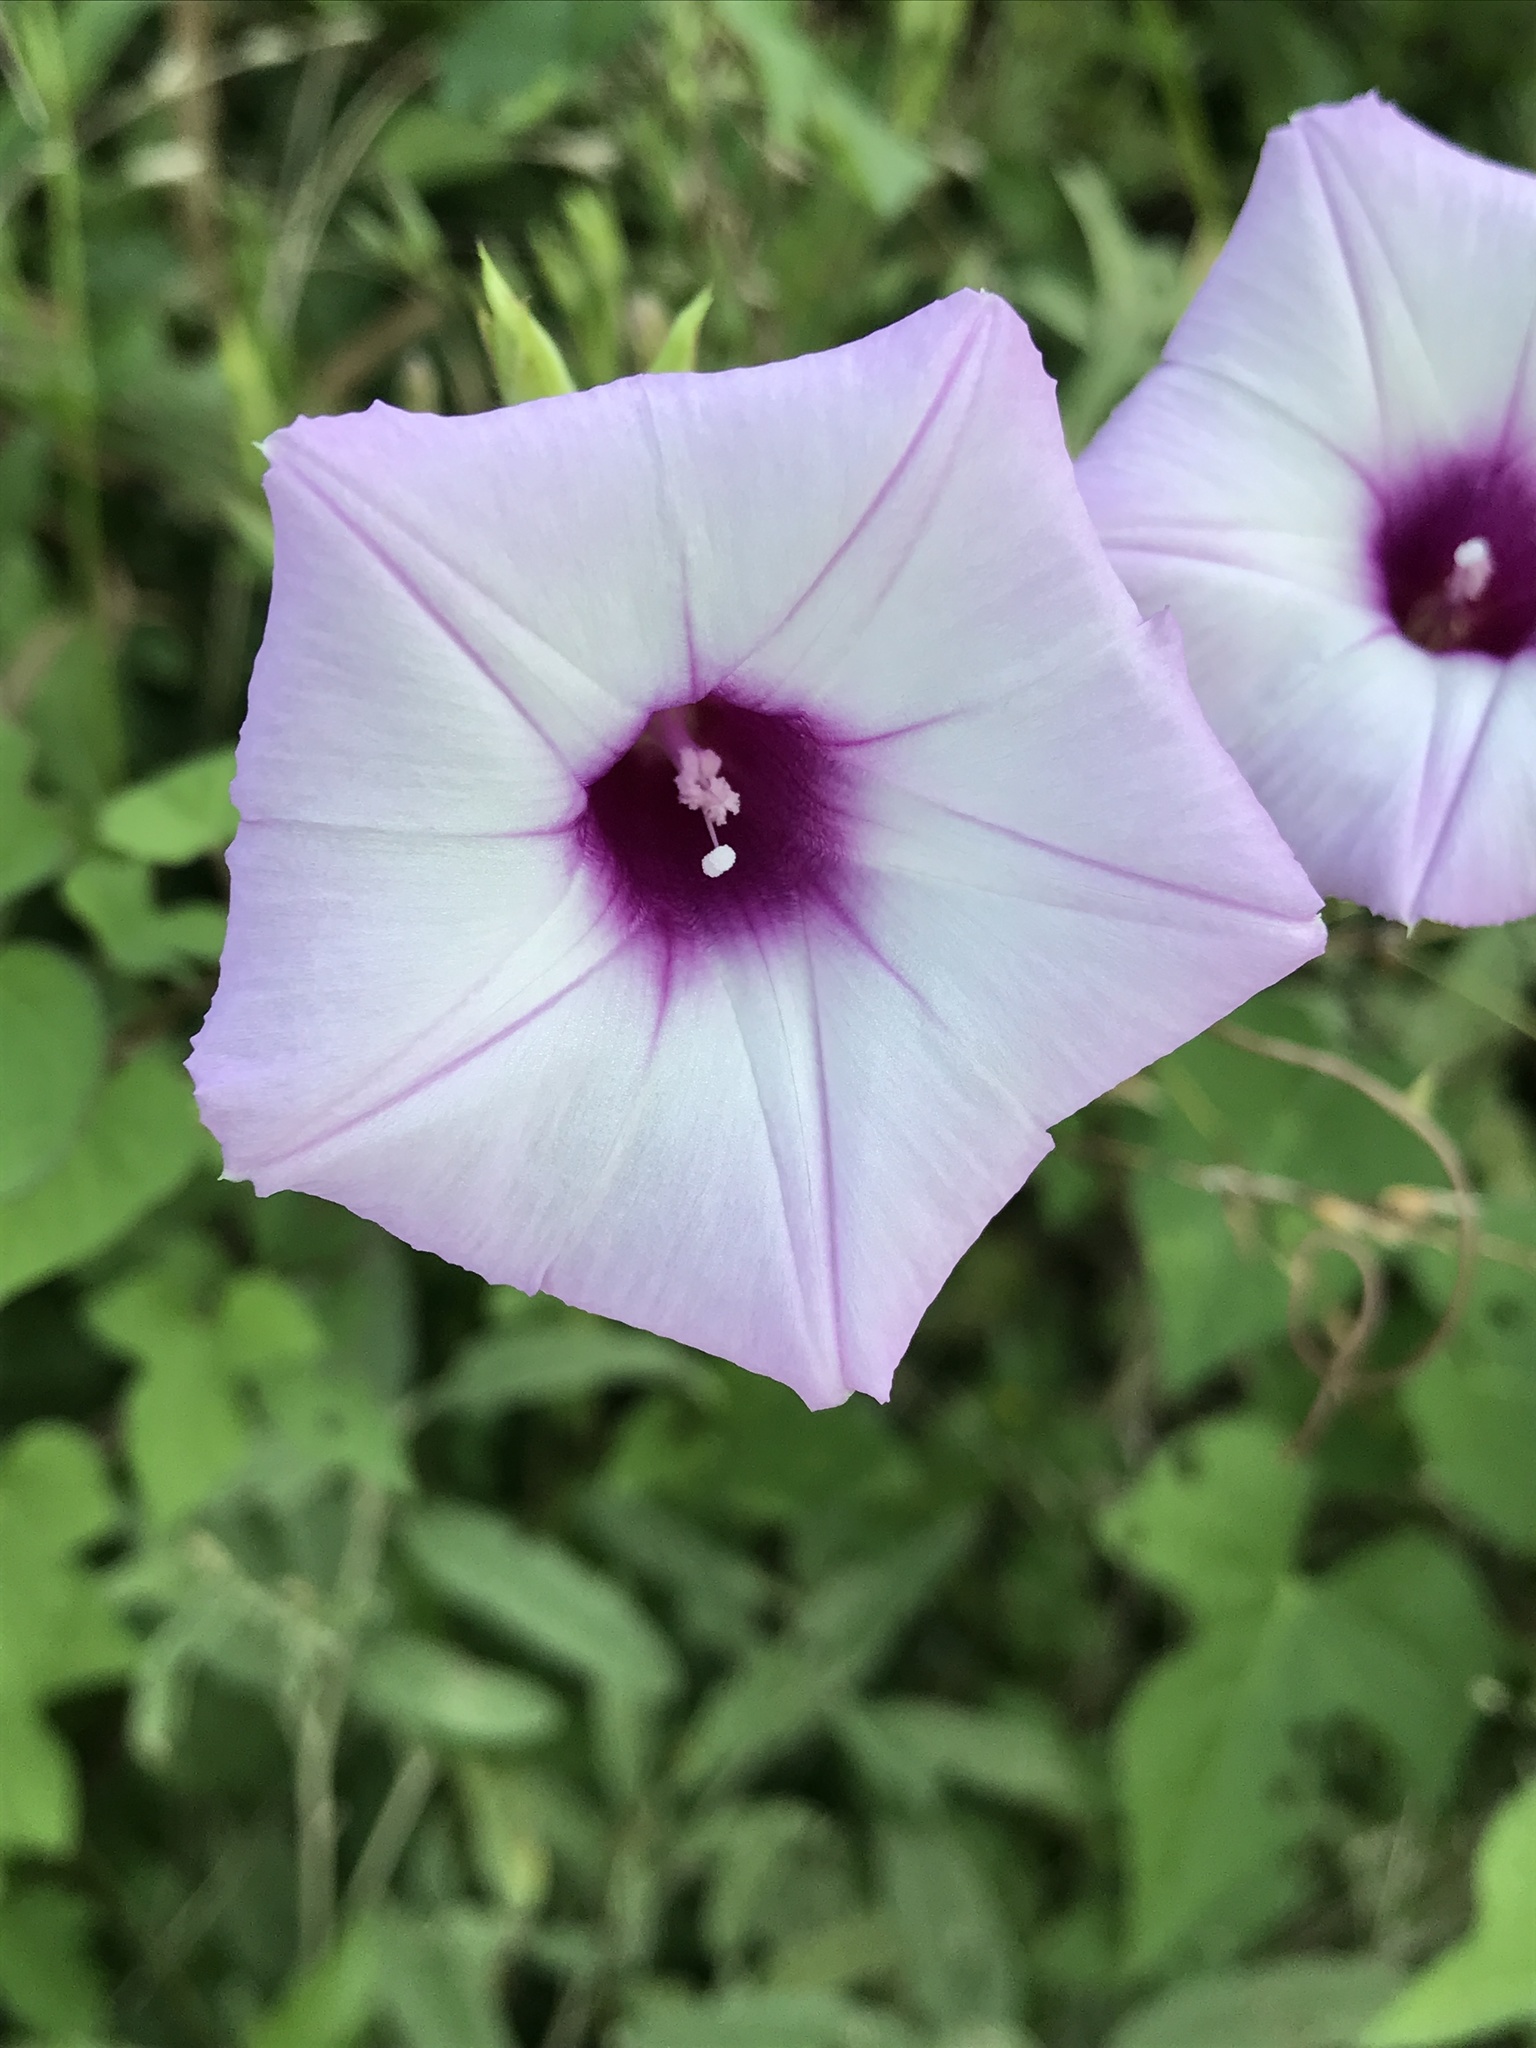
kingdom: Plantae
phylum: Tracheophyta
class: Magnoliopsida
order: Solanales
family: Convolvulaceae
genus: Ipomoea
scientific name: Ipomoea cordatotriloba
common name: Cotton morning glory
